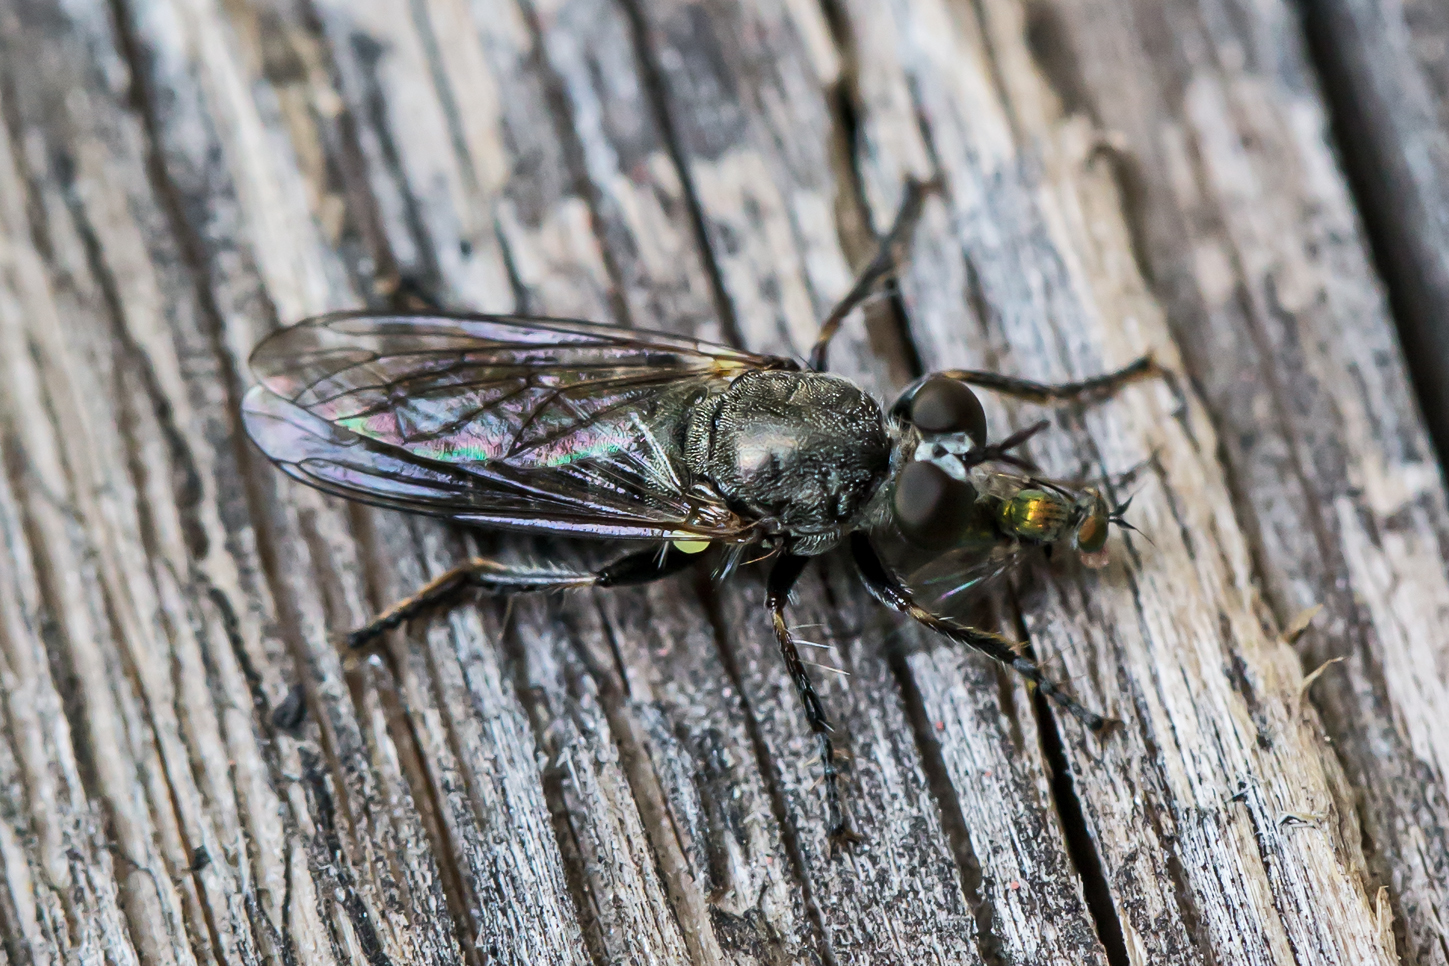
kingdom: Animalia
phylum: Arthropoda
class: Insecta
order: Diptera
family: Asilidae
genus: Atomosia
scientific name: Atomosia puella
